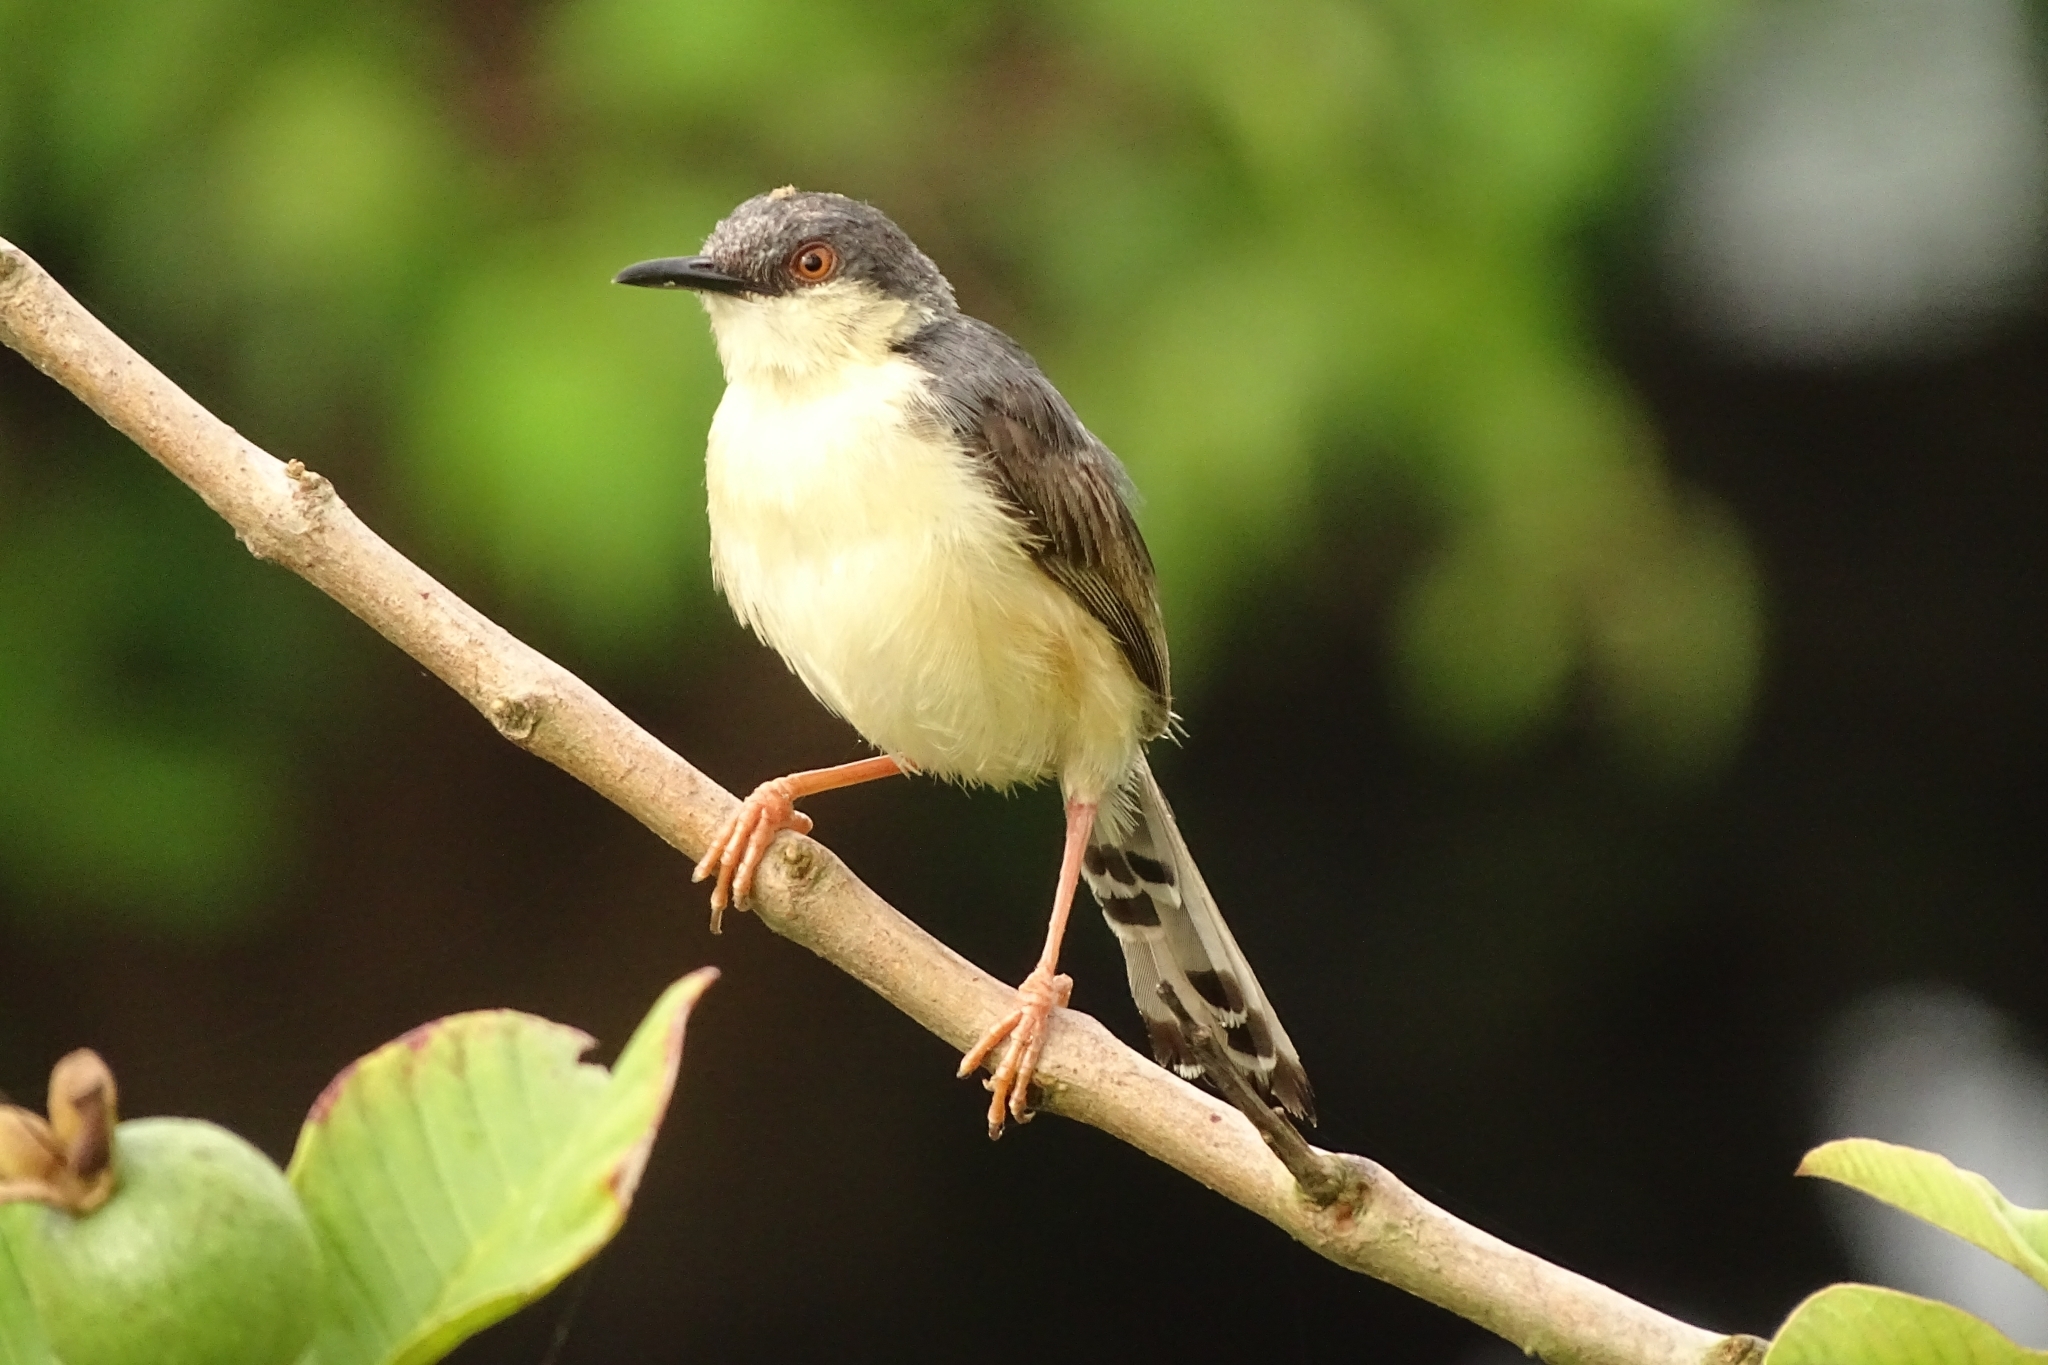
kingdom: Animalia
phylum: Chordata
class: Aves
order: Passeriformes
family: Cisticolidae
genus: Prinia
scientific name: Prinia socialis
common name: Ashy prinia
